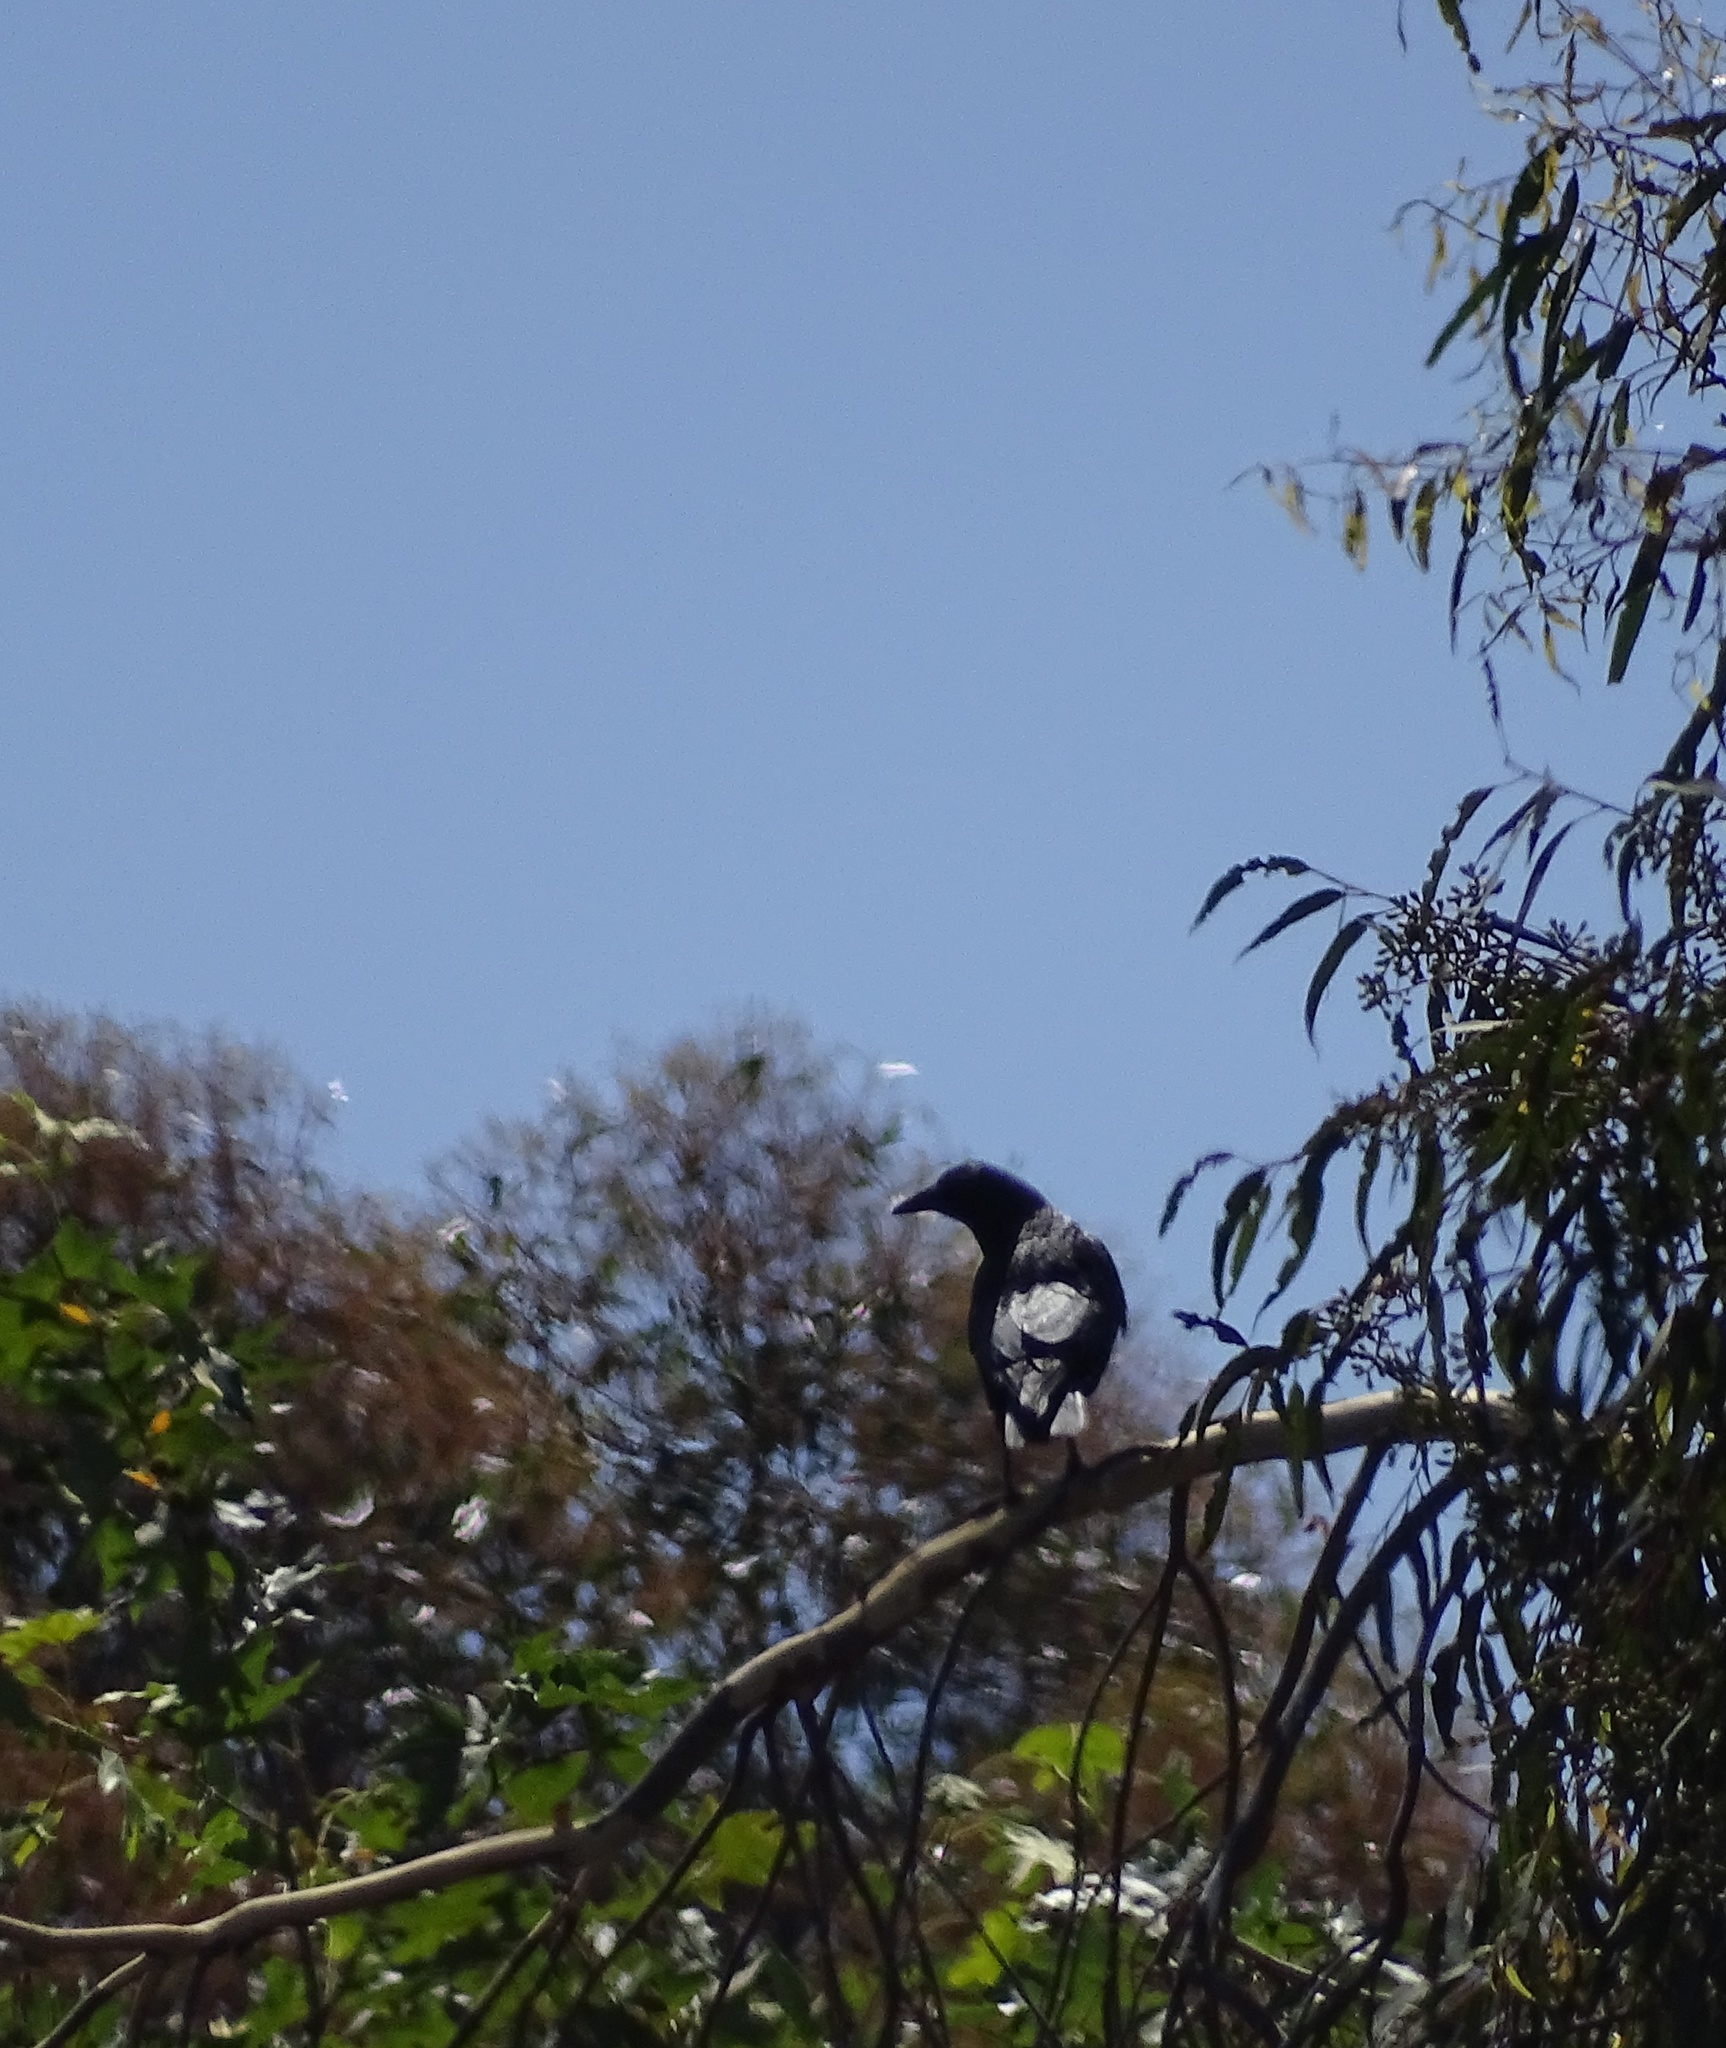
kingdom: Animalia
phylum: Chordata
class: Aves
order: Passeriformes
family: Corvidae
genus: Corvus
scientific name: Corvus brachyrhynchos
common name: American crow
